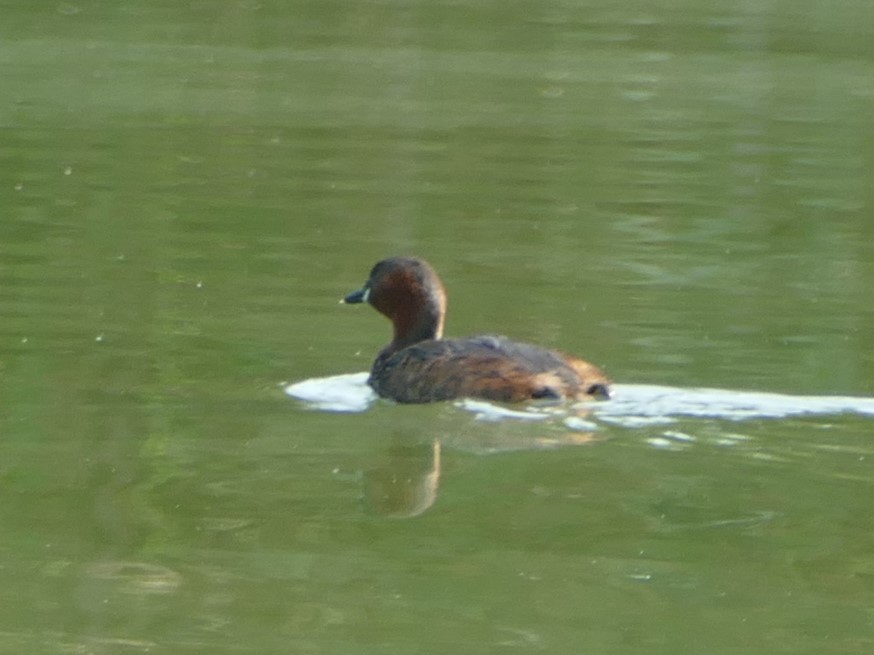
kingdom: Animalia
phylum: Chordata
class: Aves
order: Podicipediformes
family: Podicipedidae
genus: Tachybaptus
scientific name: Tachybaptus ruficollis
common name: Little grebe
